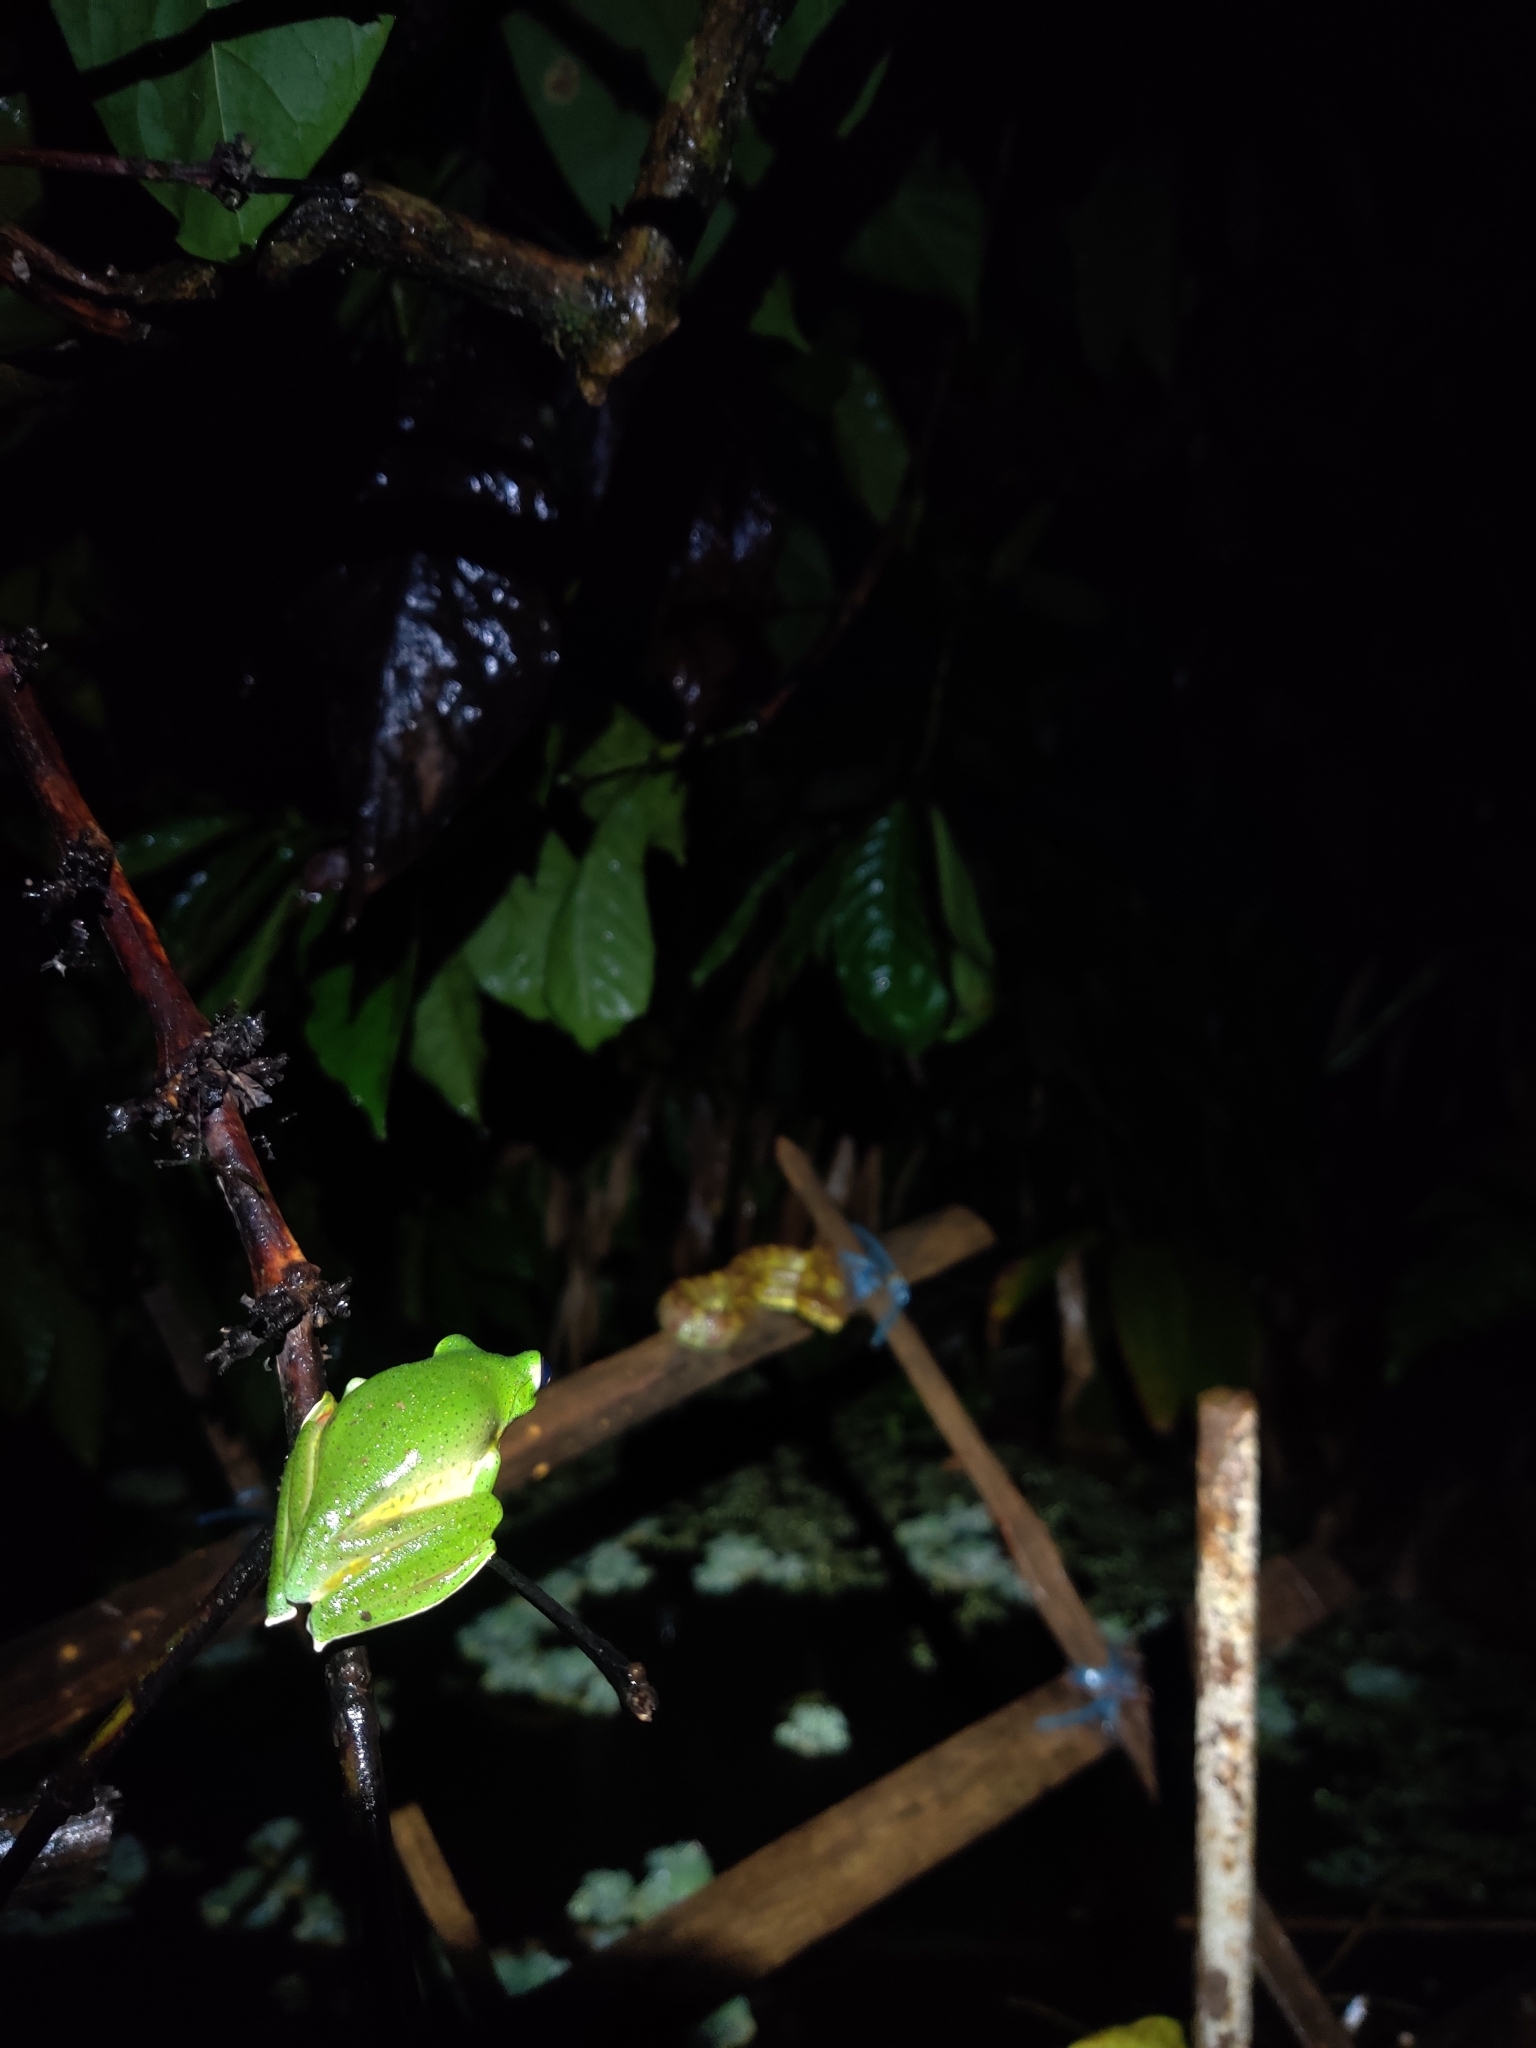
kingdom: Animalia
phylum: Chordata
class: Amphibia
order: Anura
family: Rhacophoridae
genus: Rhacophorus
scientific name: Rhacophorus malabaricus
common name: Malabar gliding frog
